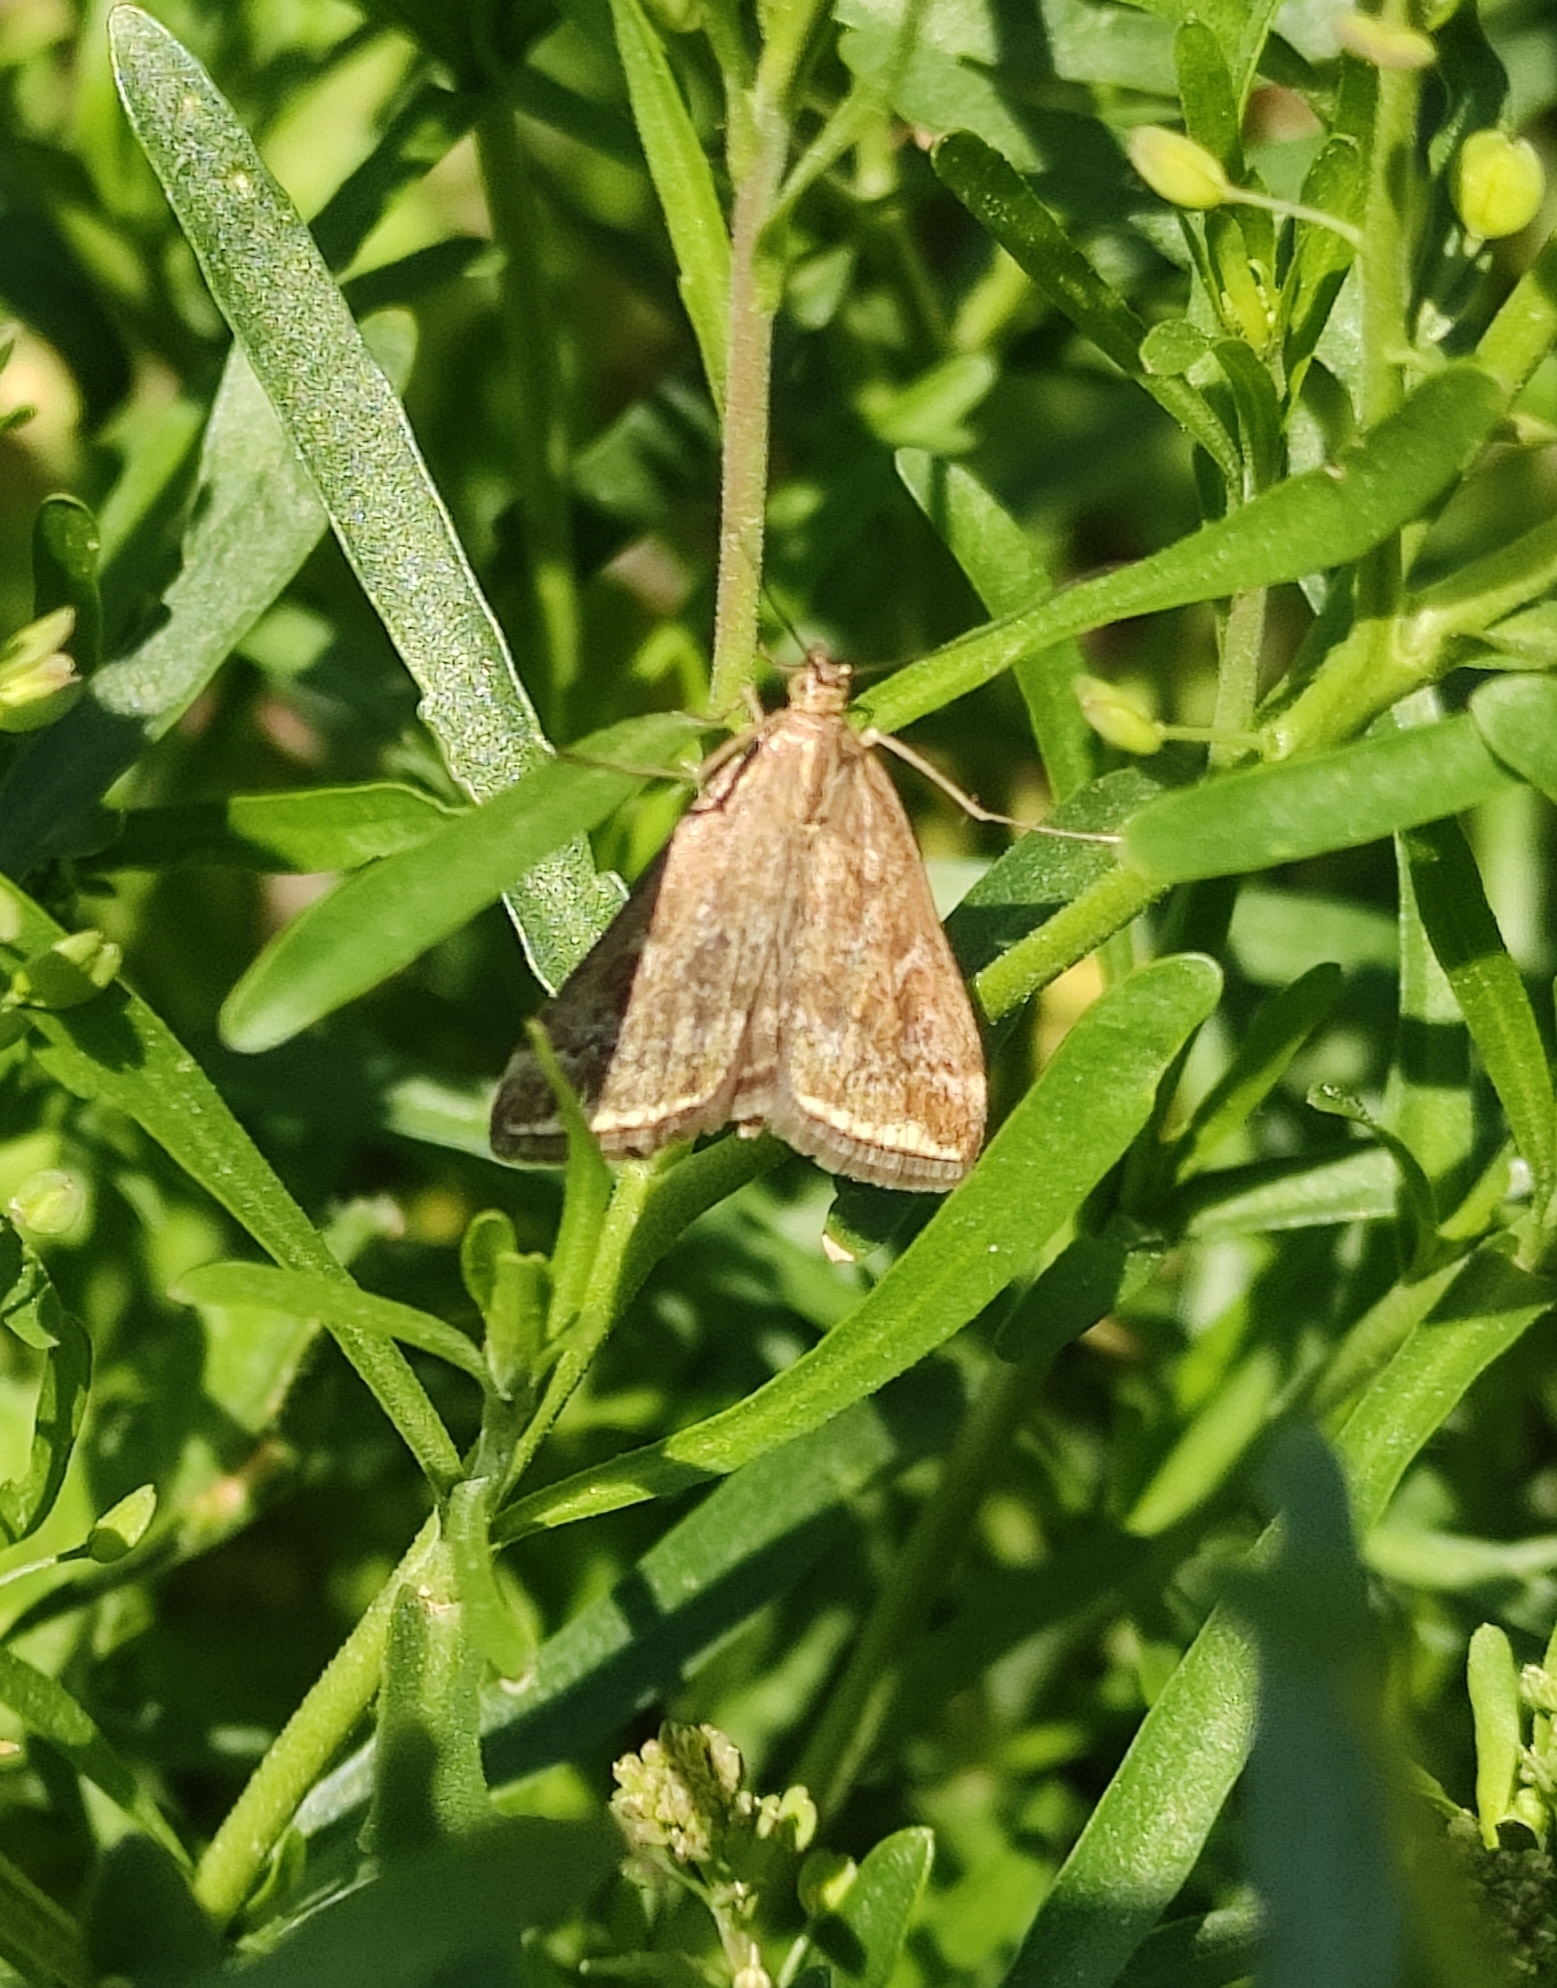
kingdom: Animalia
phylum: Arthropoda
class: Insecta
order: Lepidoptera
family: Crambidae
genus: Loxostege
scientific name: Loxostege sticticalis
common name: Crambid moth
